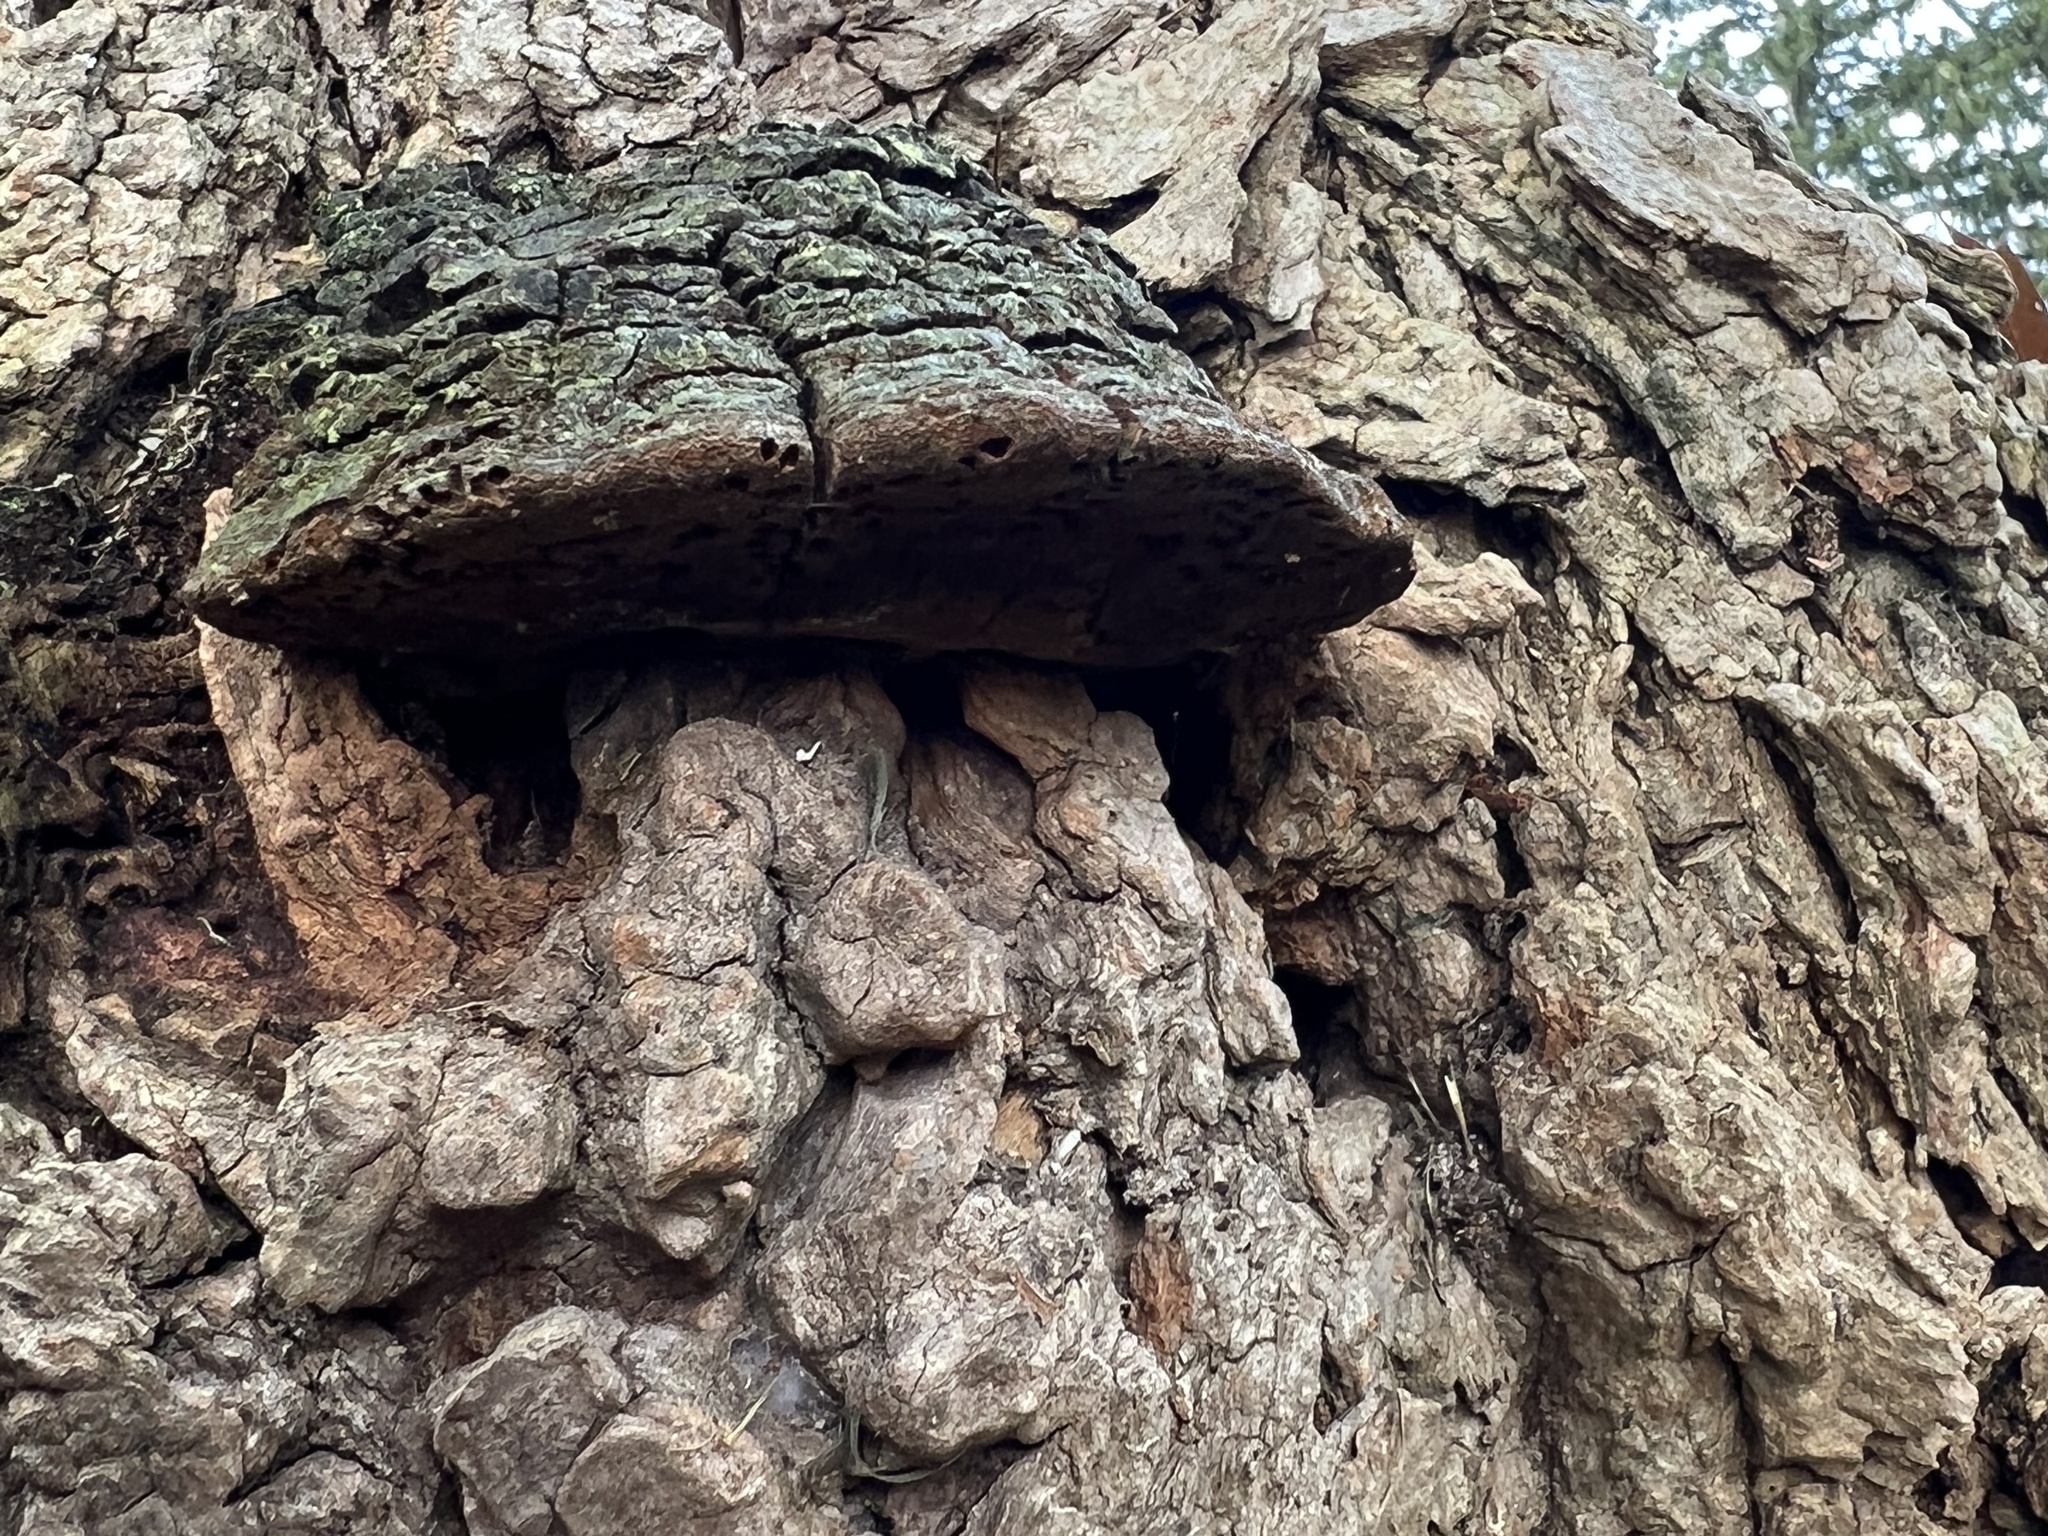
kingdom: Fungi
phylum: Basidiomycota
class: Agaricomycetes
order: Hymenochaetales
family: Hymenochaetaceae
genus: Phellinus
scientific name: Phellinus robiniae
